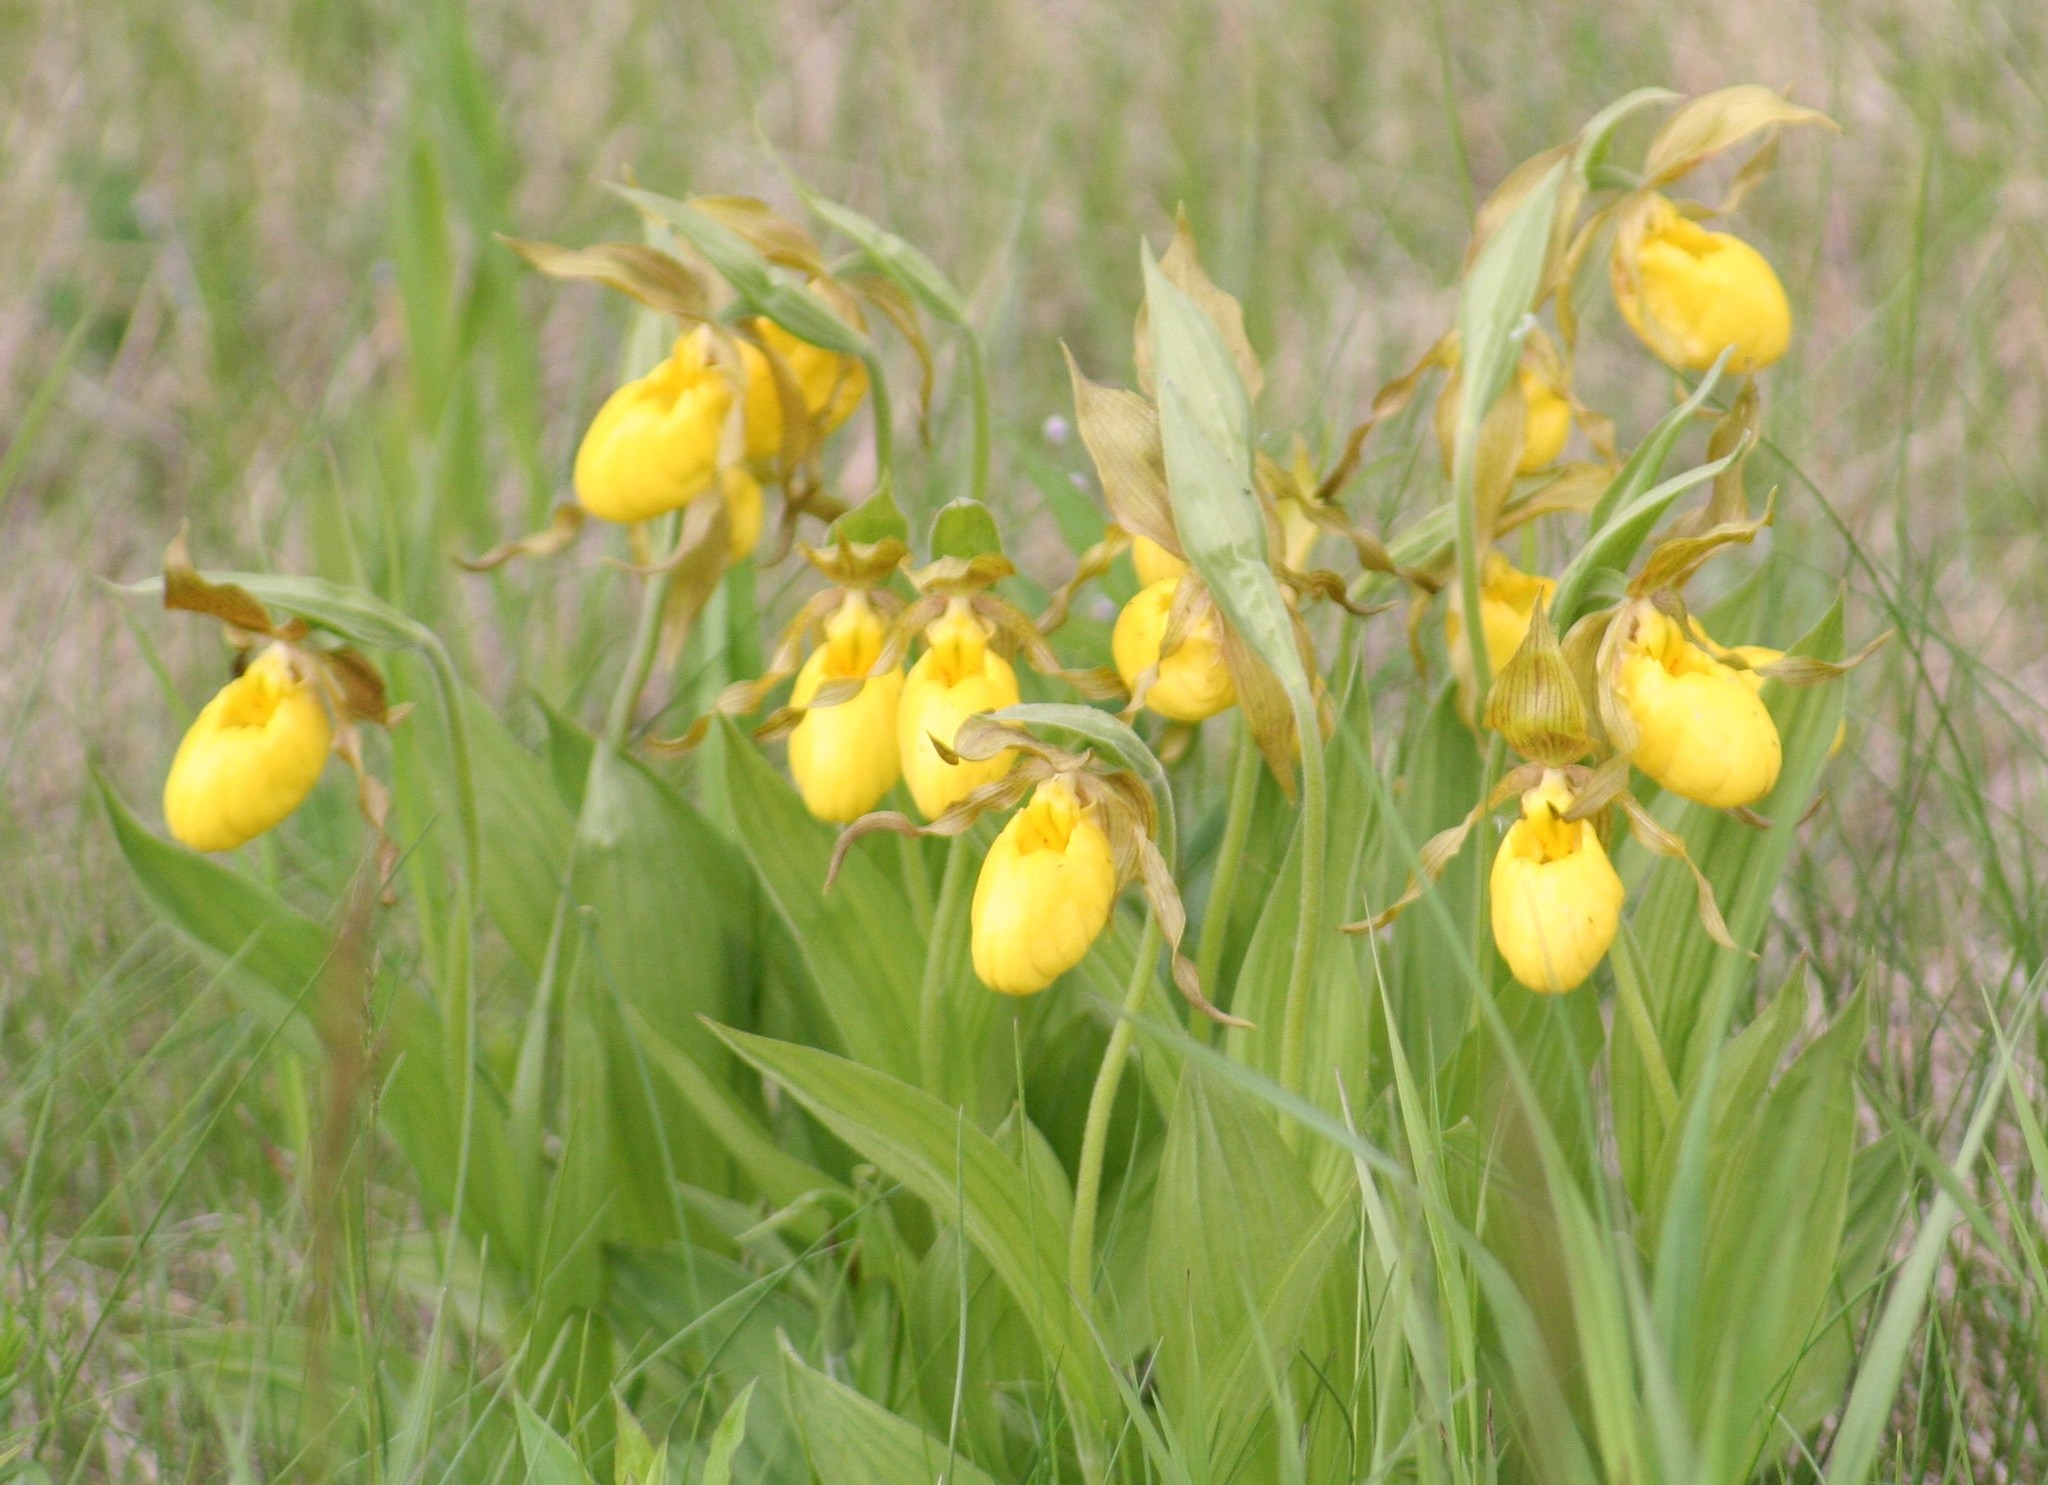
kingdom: Plantae
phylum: Tracheophyta
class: Liliopsida
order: Asparagales
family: Orchidaceae
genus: Cypripedium
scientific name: Cypripedium parviflorum
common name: American yellow lady's-slipper
